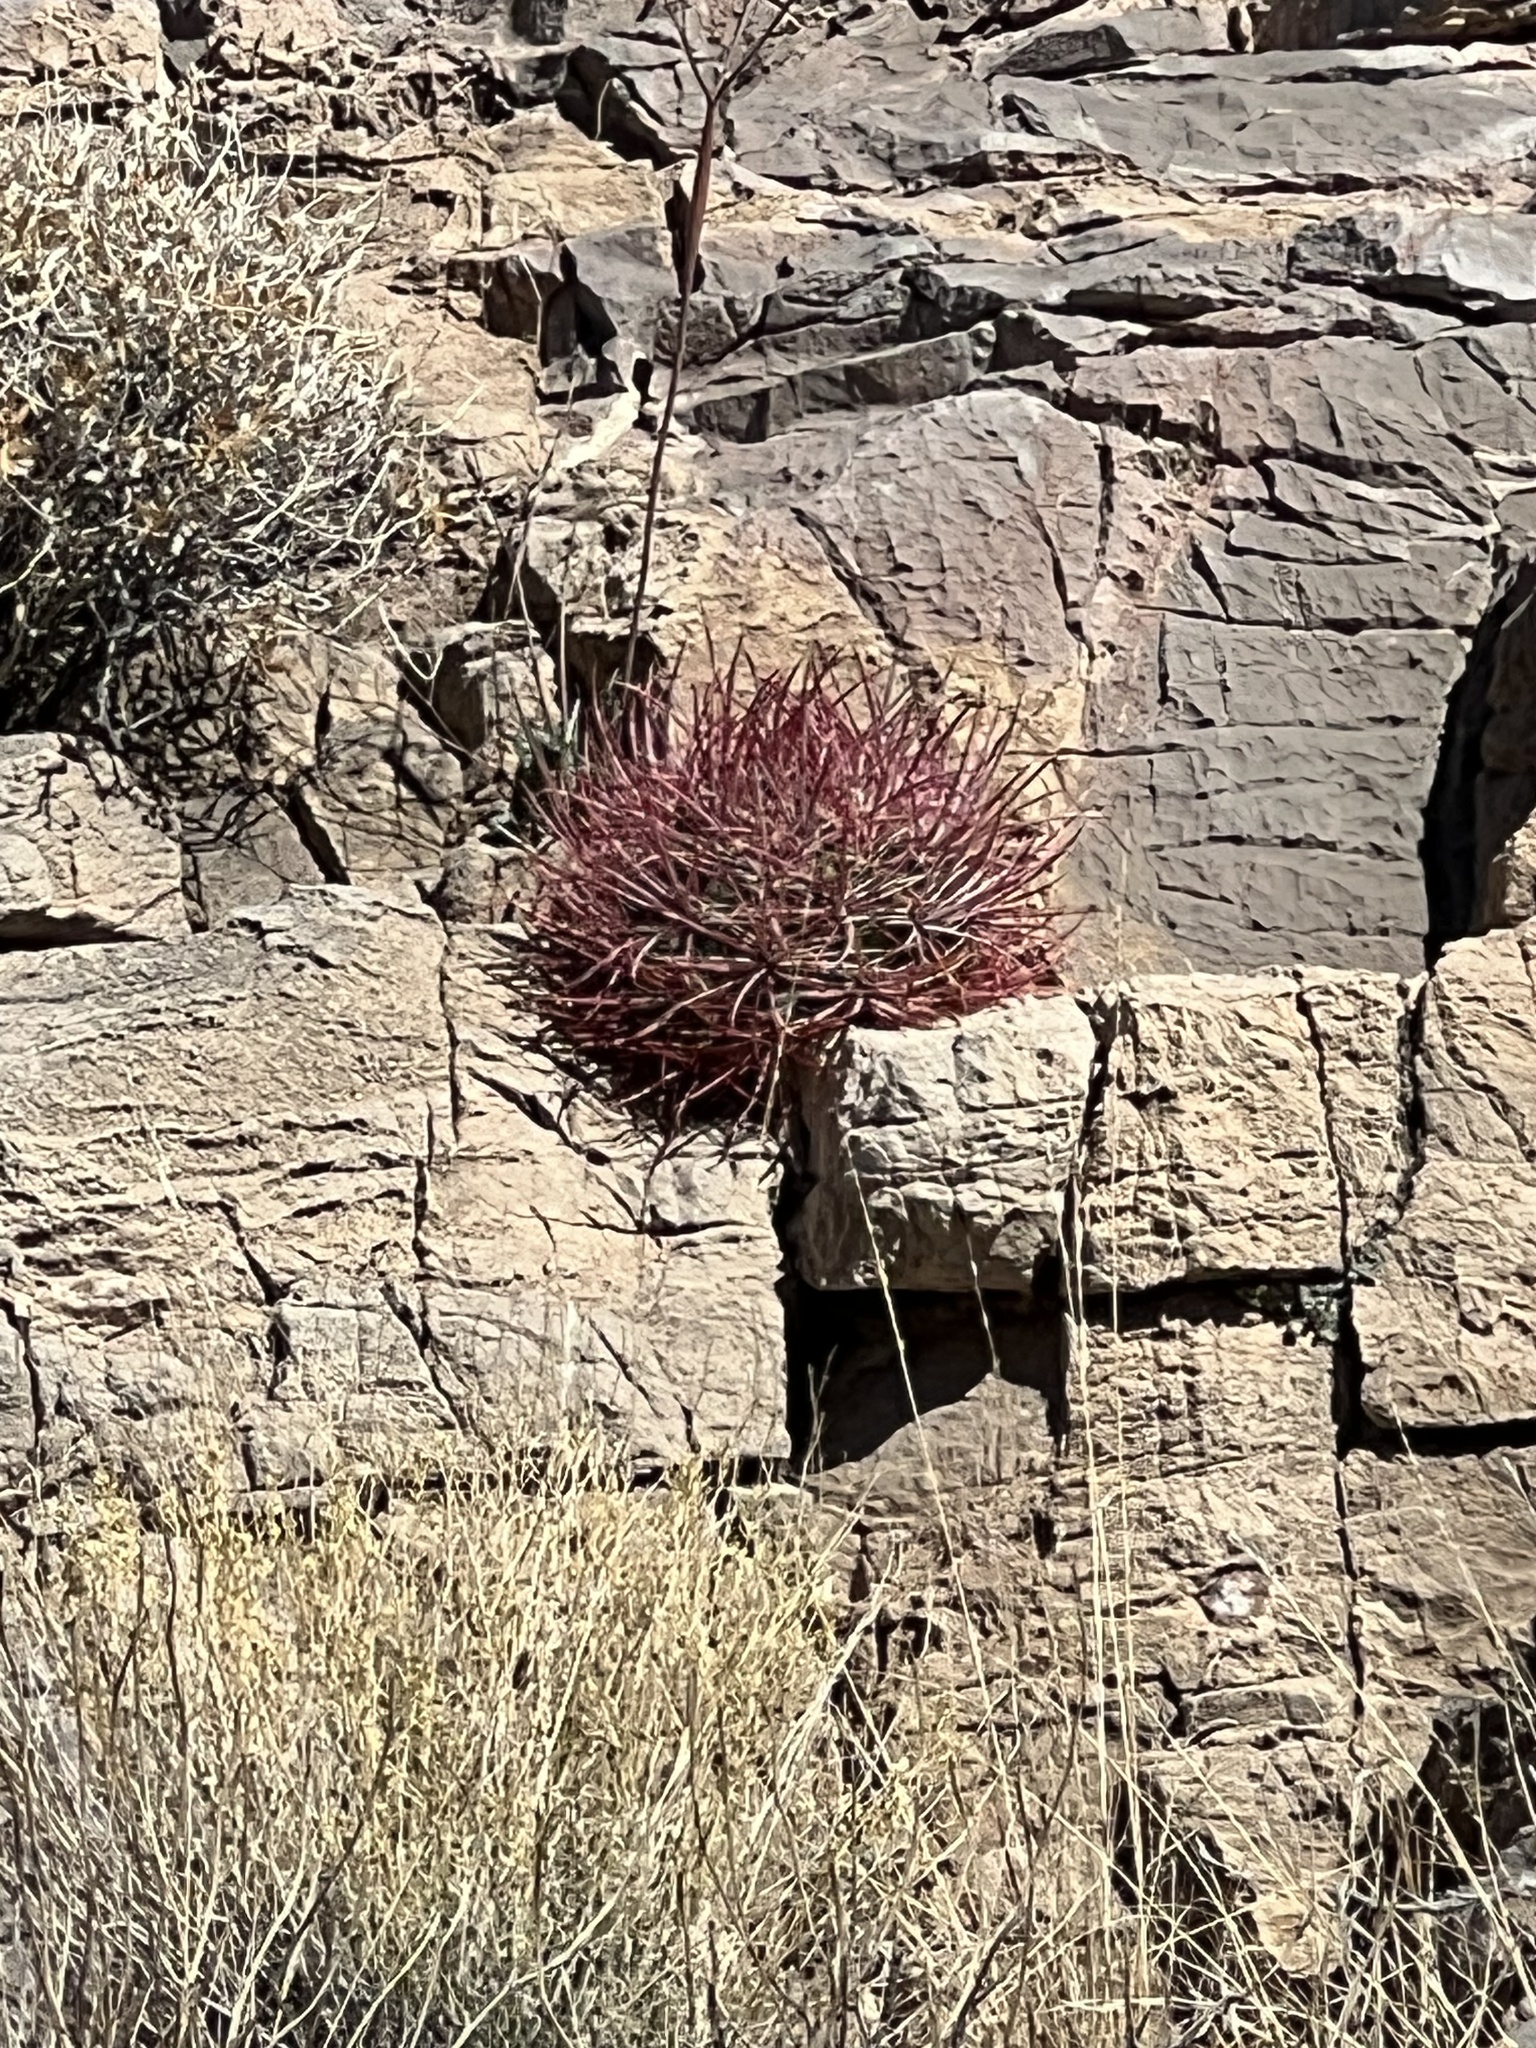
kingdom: Plantae
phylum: Tracheophyta
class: Magnoliopsida
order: Caryophyllales
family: Cactaceae
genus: Ferocactus
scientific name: Ferocactus cylindraceus
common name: California barrel cactus
